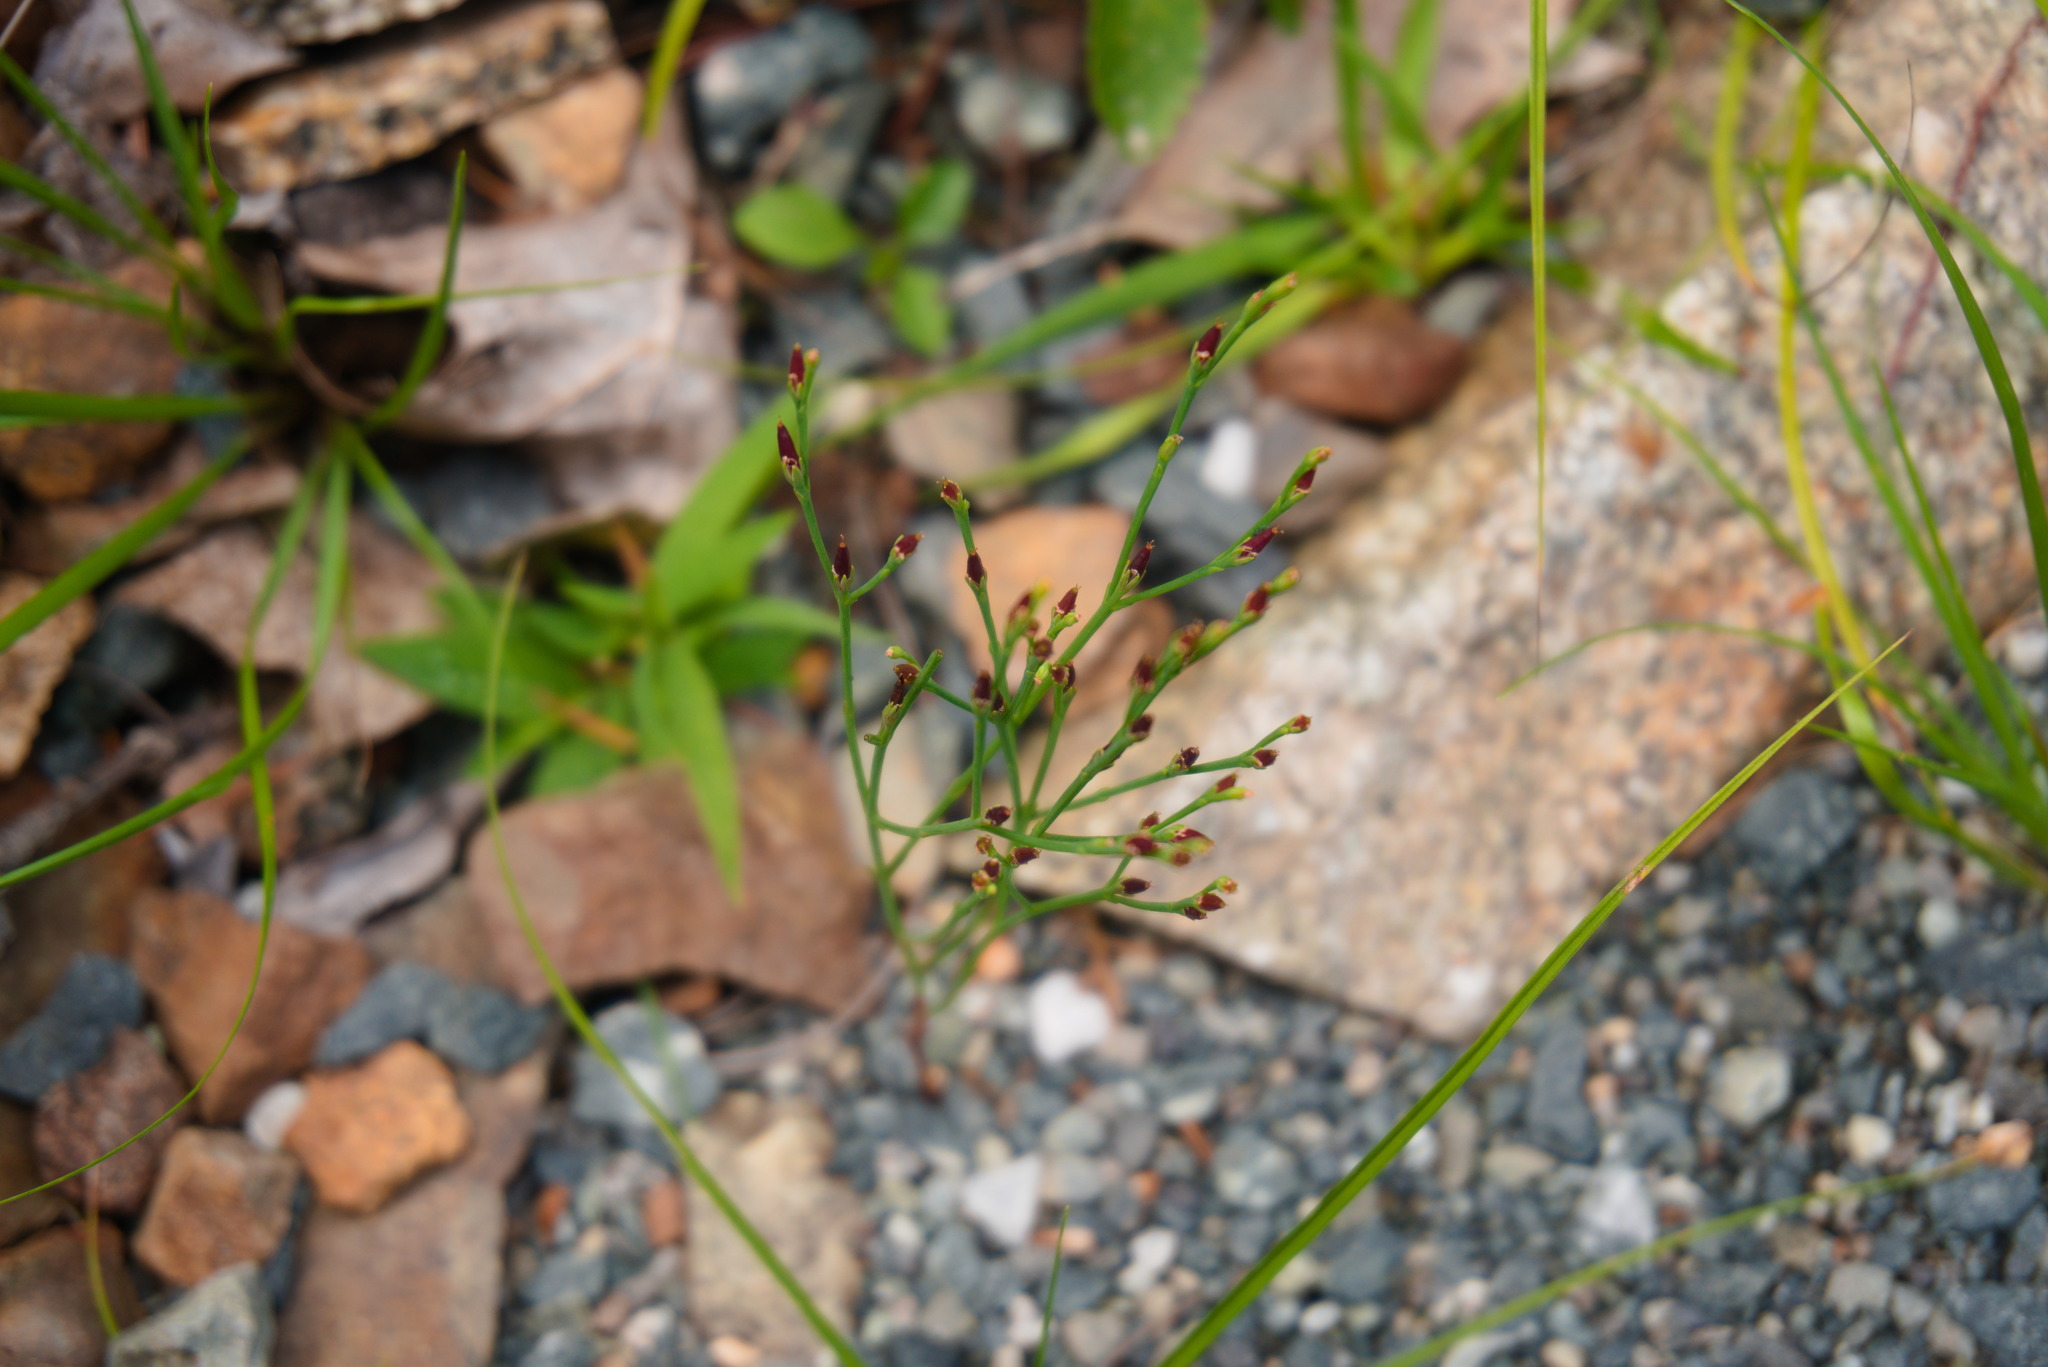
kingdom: Plantae
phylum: Tracheophyta
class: Magnoliopsida
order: Malpighiales
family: Hypericaceae
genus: Hypericum
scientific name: Hypericum gentianoides
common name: Gentian-leaved st. john's-wort
